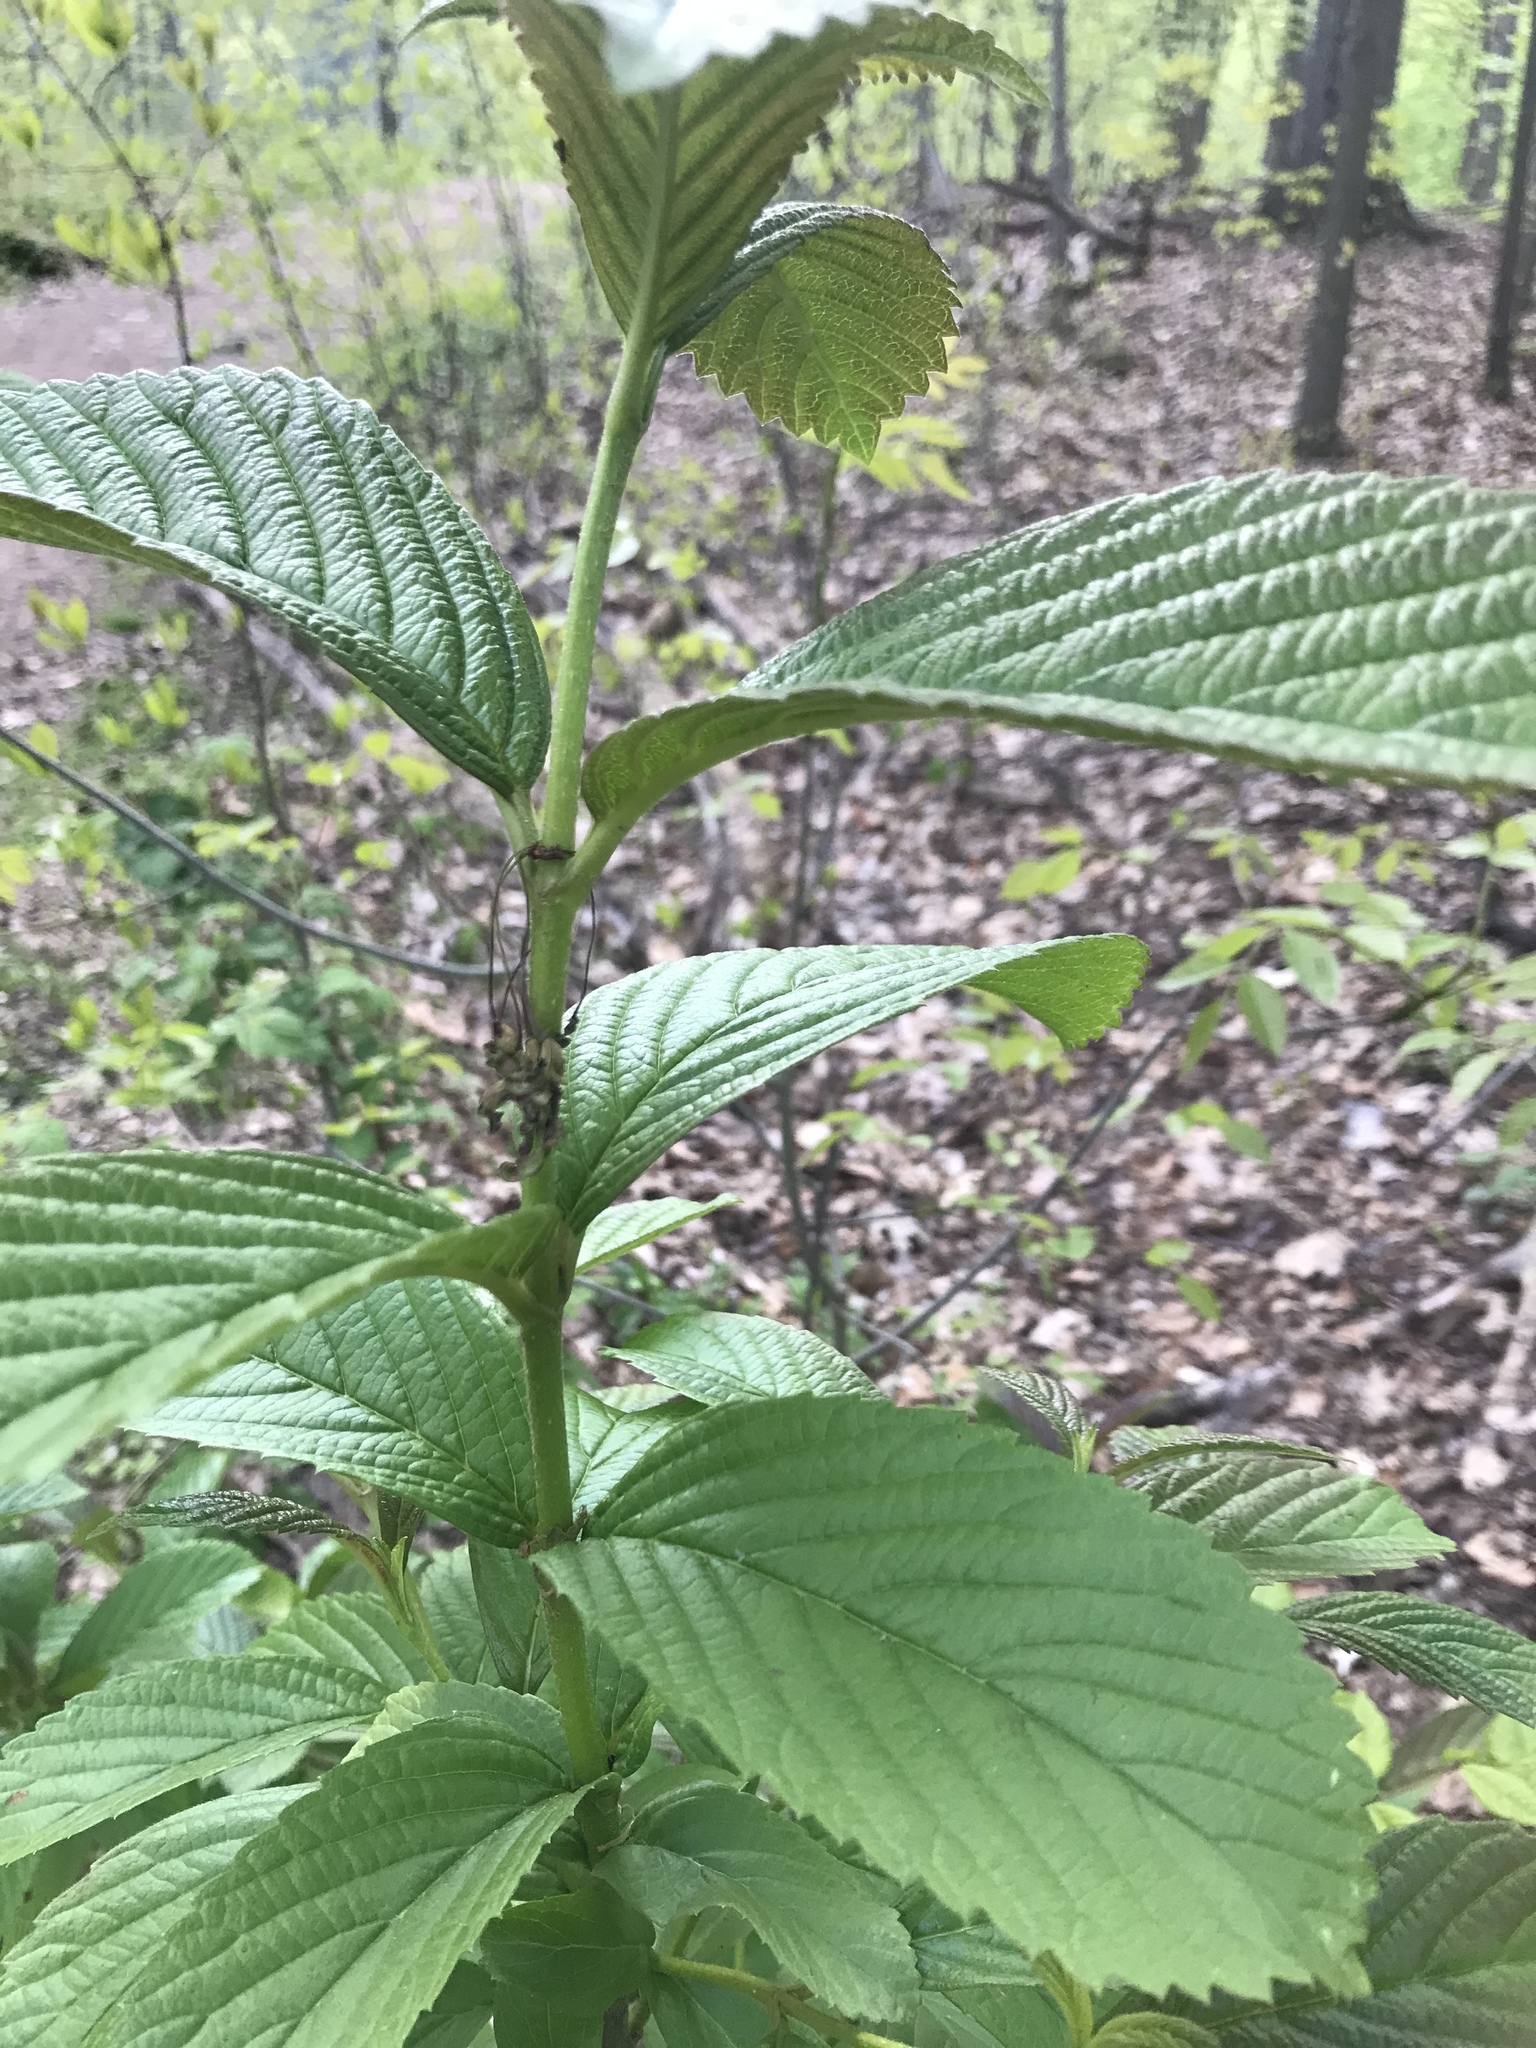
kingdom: Plantae
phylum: Tracheophyta
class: Magnoliopsida
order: Dipsacales
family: Viburnaceae
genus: Viburnum
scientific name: Viburnum sieboldii
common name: Siebold's arrowwood
